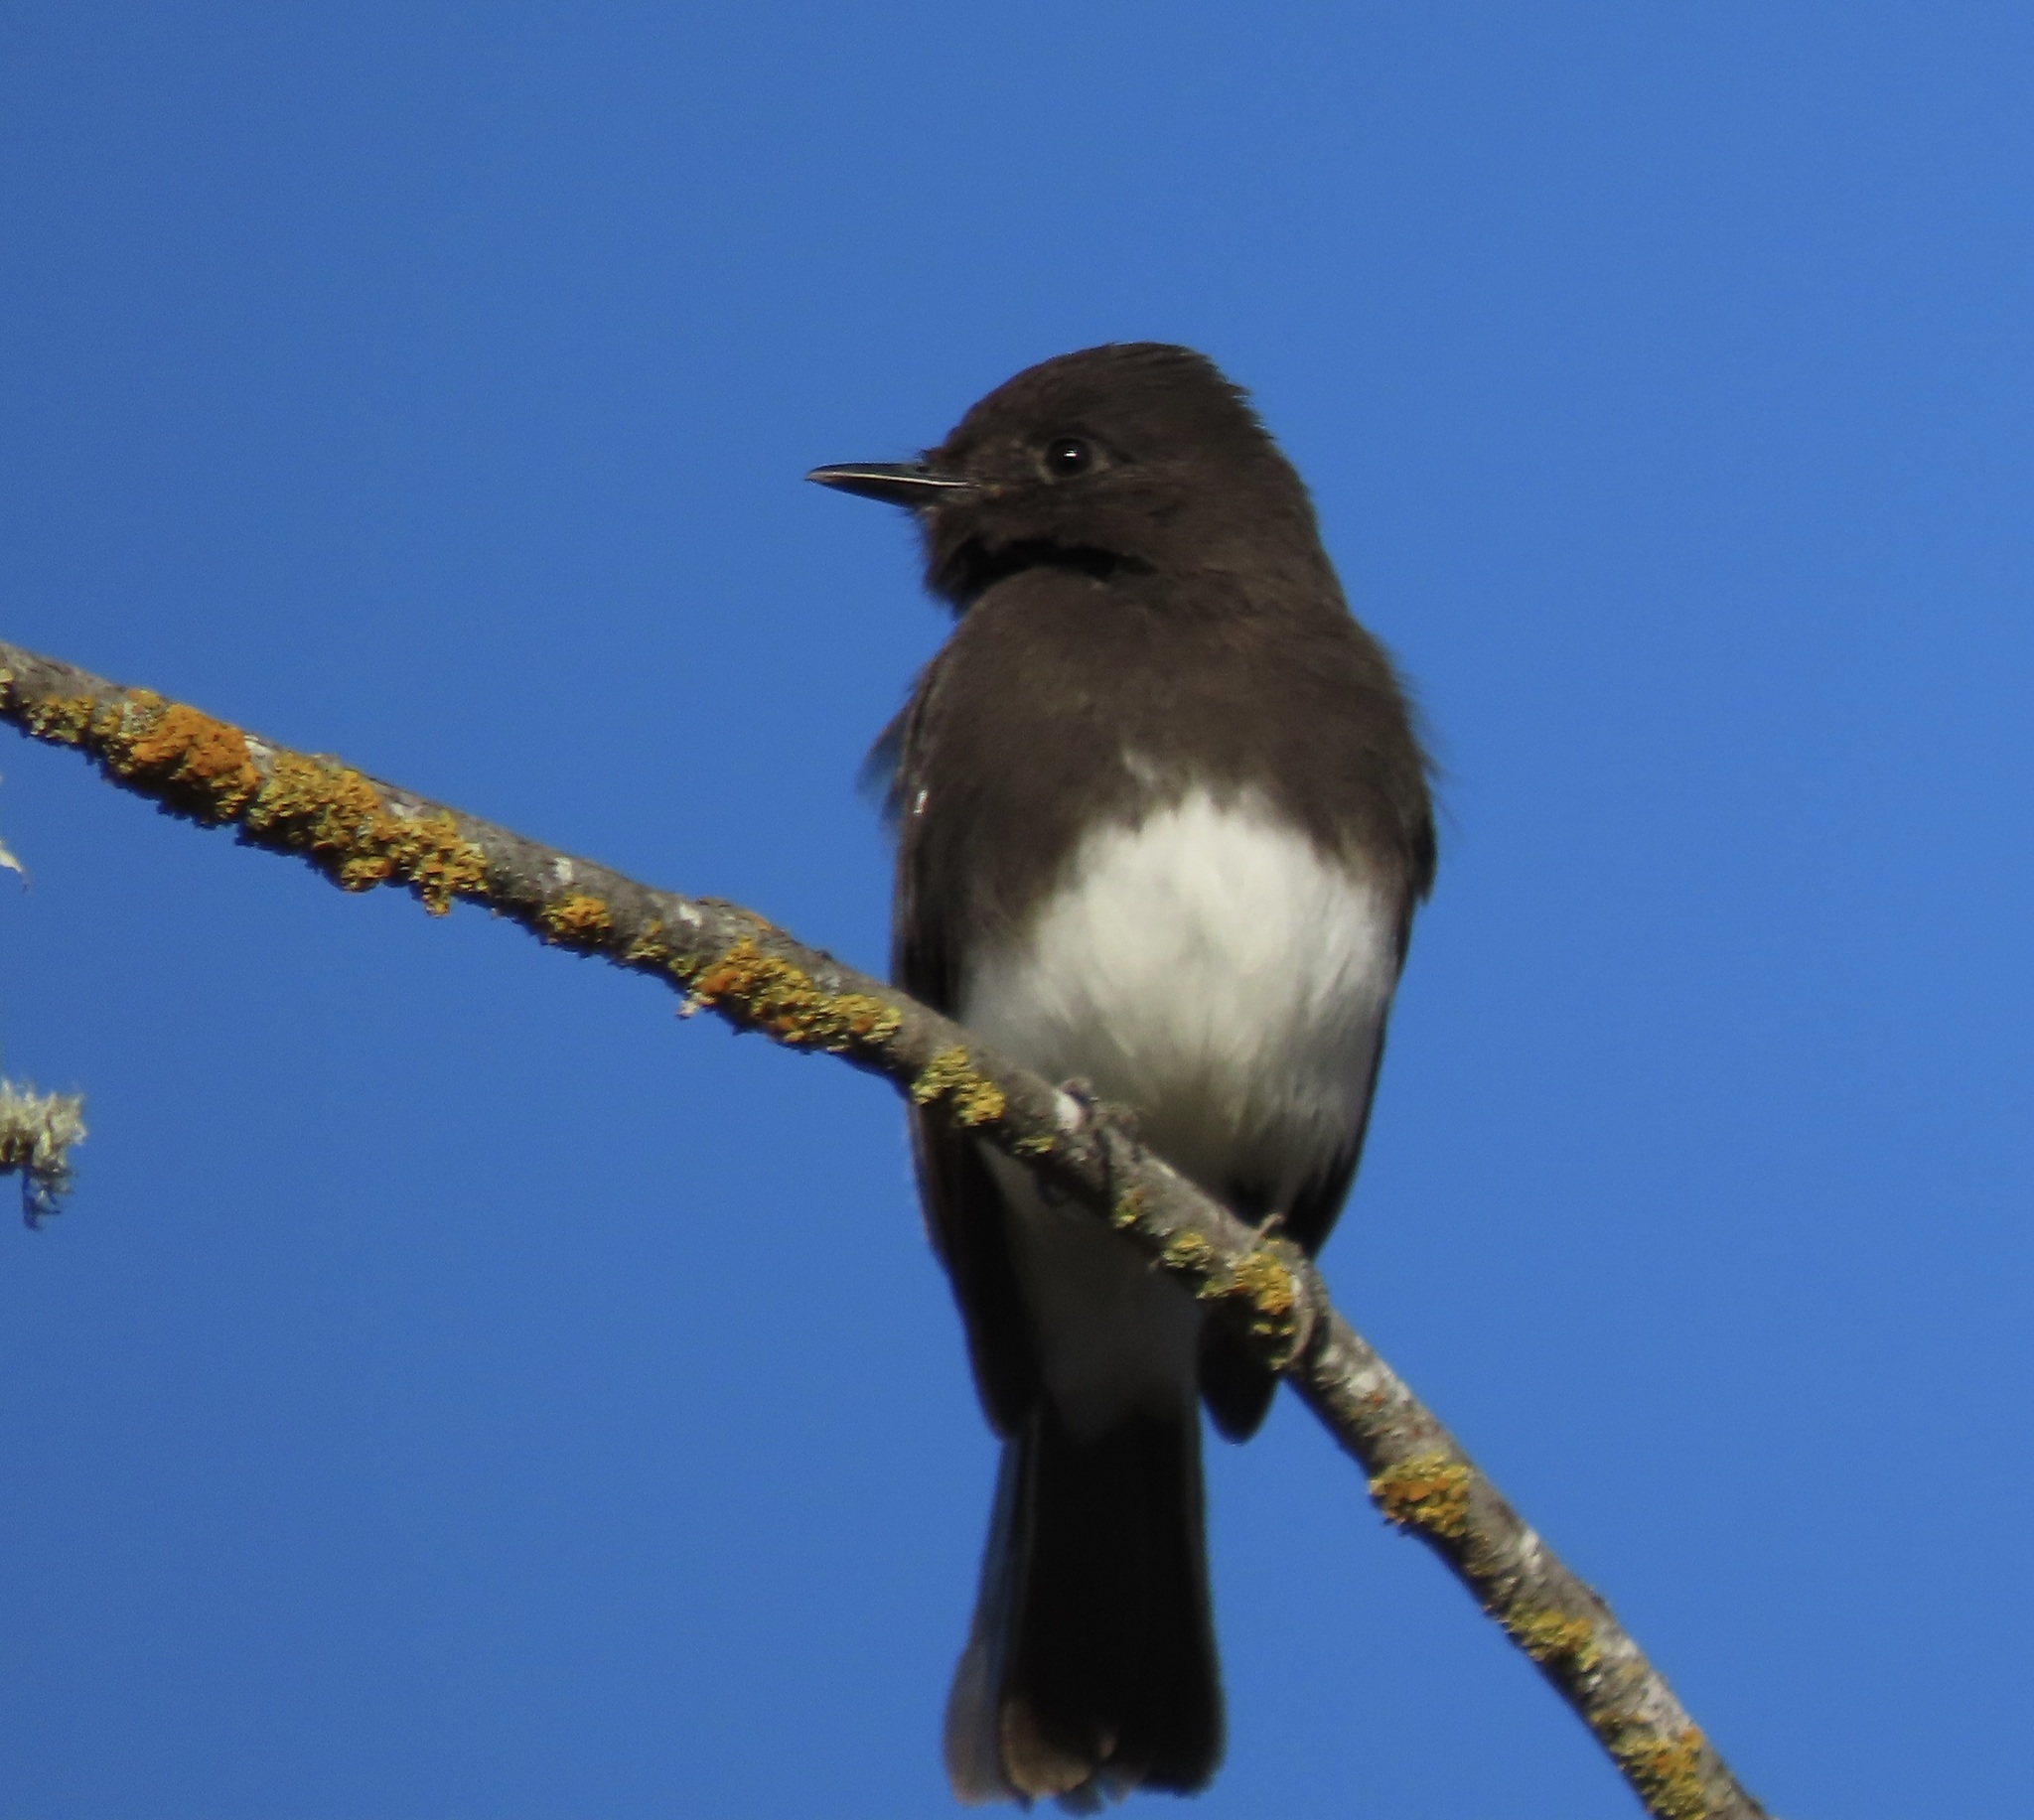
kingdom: Animalia
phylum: Chordata
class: Aves
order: Passeriformes
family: Tyrannidae
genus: Sayornis
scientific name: Sayornis nigricans
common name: Black phoebe
